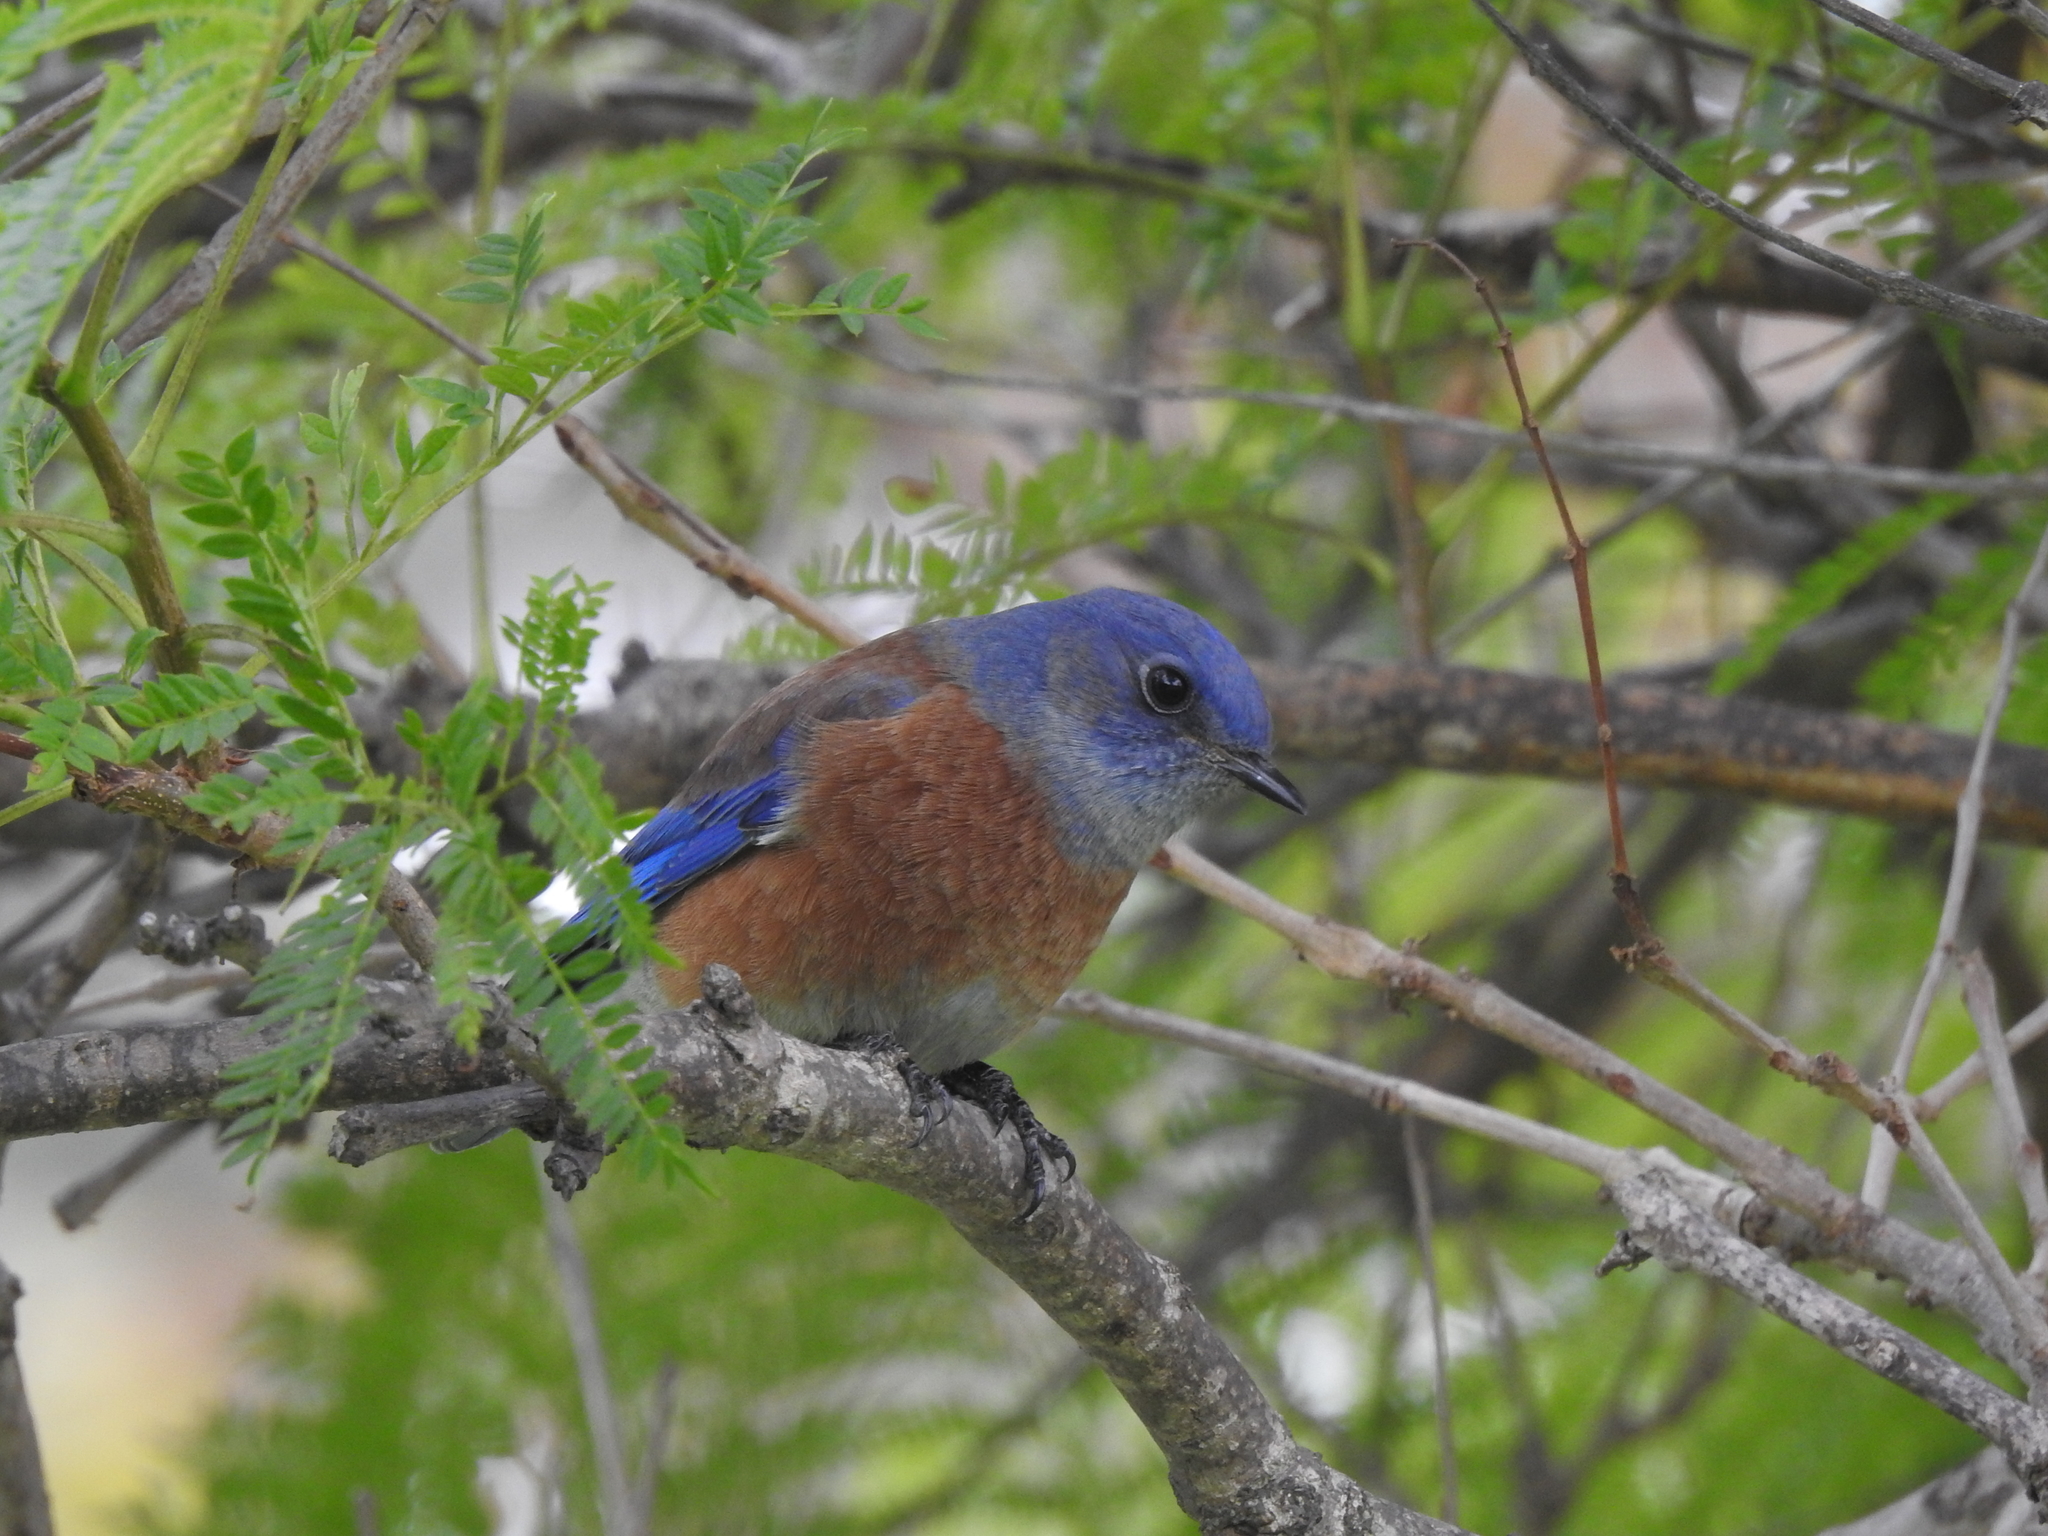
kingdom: Animalia
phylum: Chordata
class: Aves
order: Passeriformes
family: Turdidae
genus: Sialia
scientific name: Sialia mexicana
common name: Western bluebird
